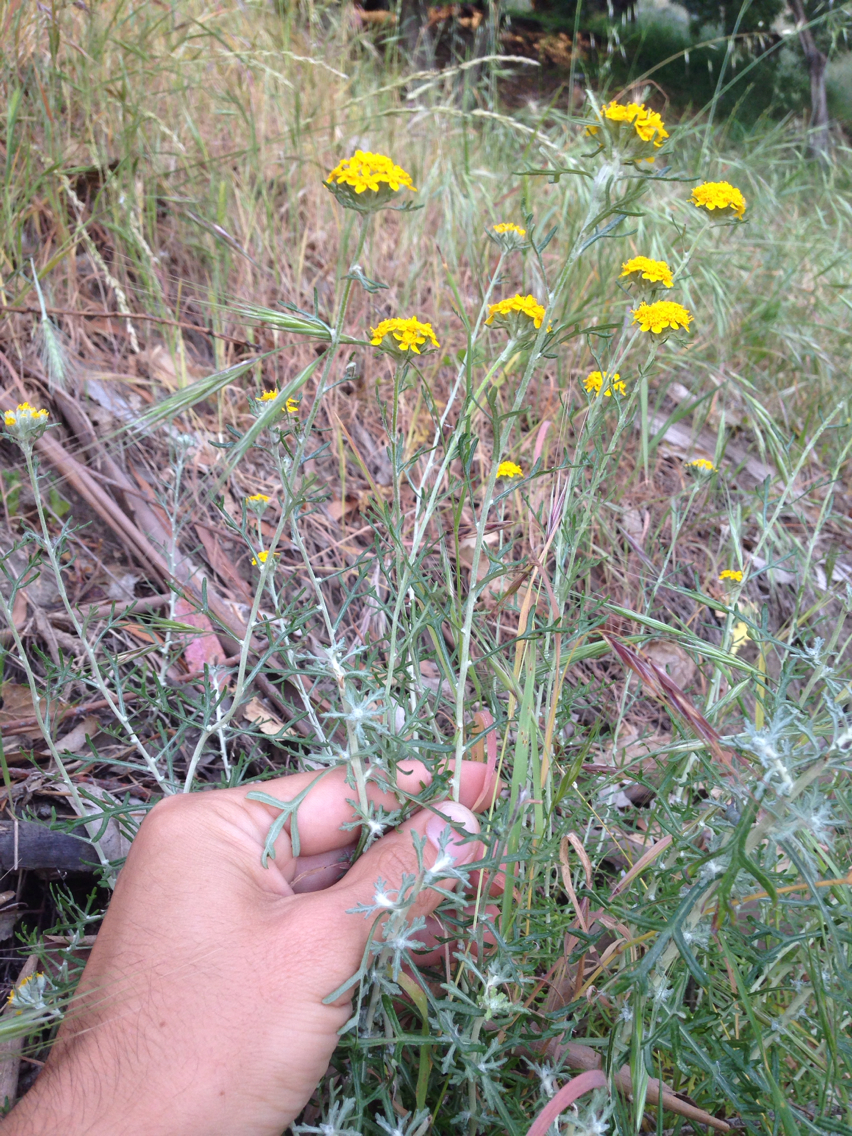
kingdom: Plantae
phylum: Tracheophyta
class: Magnoliopsida
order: Asterales
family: Asteraceae
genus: Eriophyllum
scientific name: Eriophyllum confertiflorum
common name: Golden-yarrow
